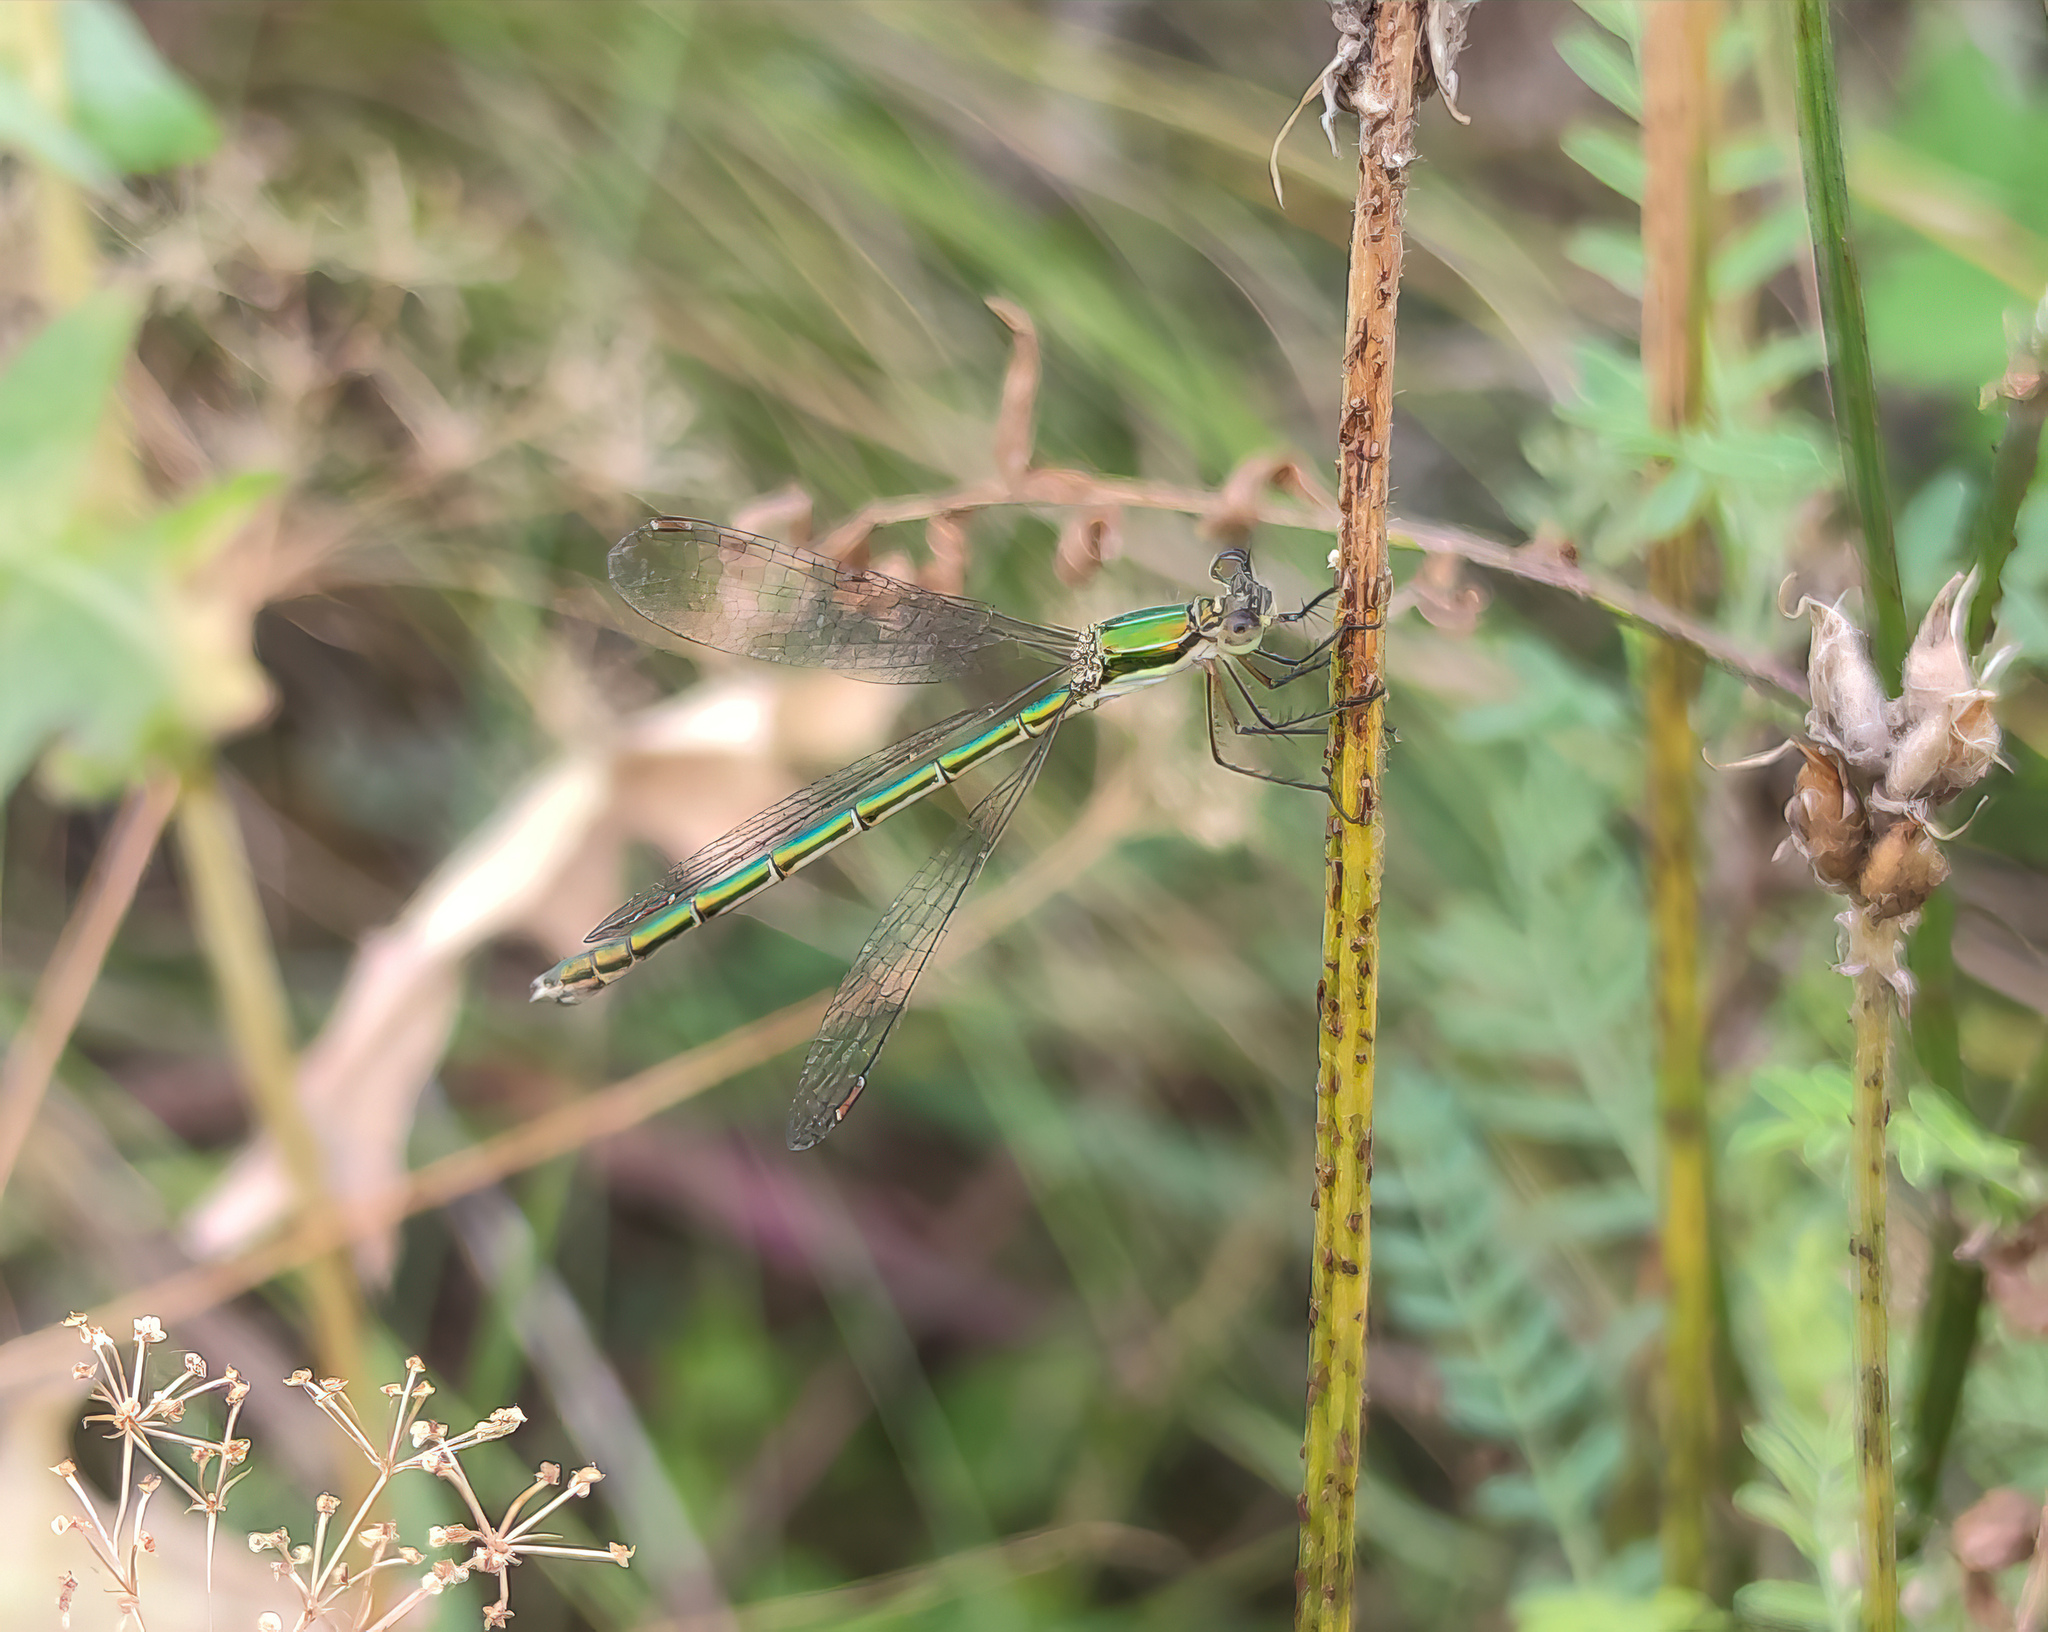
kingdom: Animalia
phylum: Arthropoda
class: Insecta
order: Odonata
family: Lestidae
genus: Lestes
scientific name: Lestes virens
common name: Small emerald spreadwing
